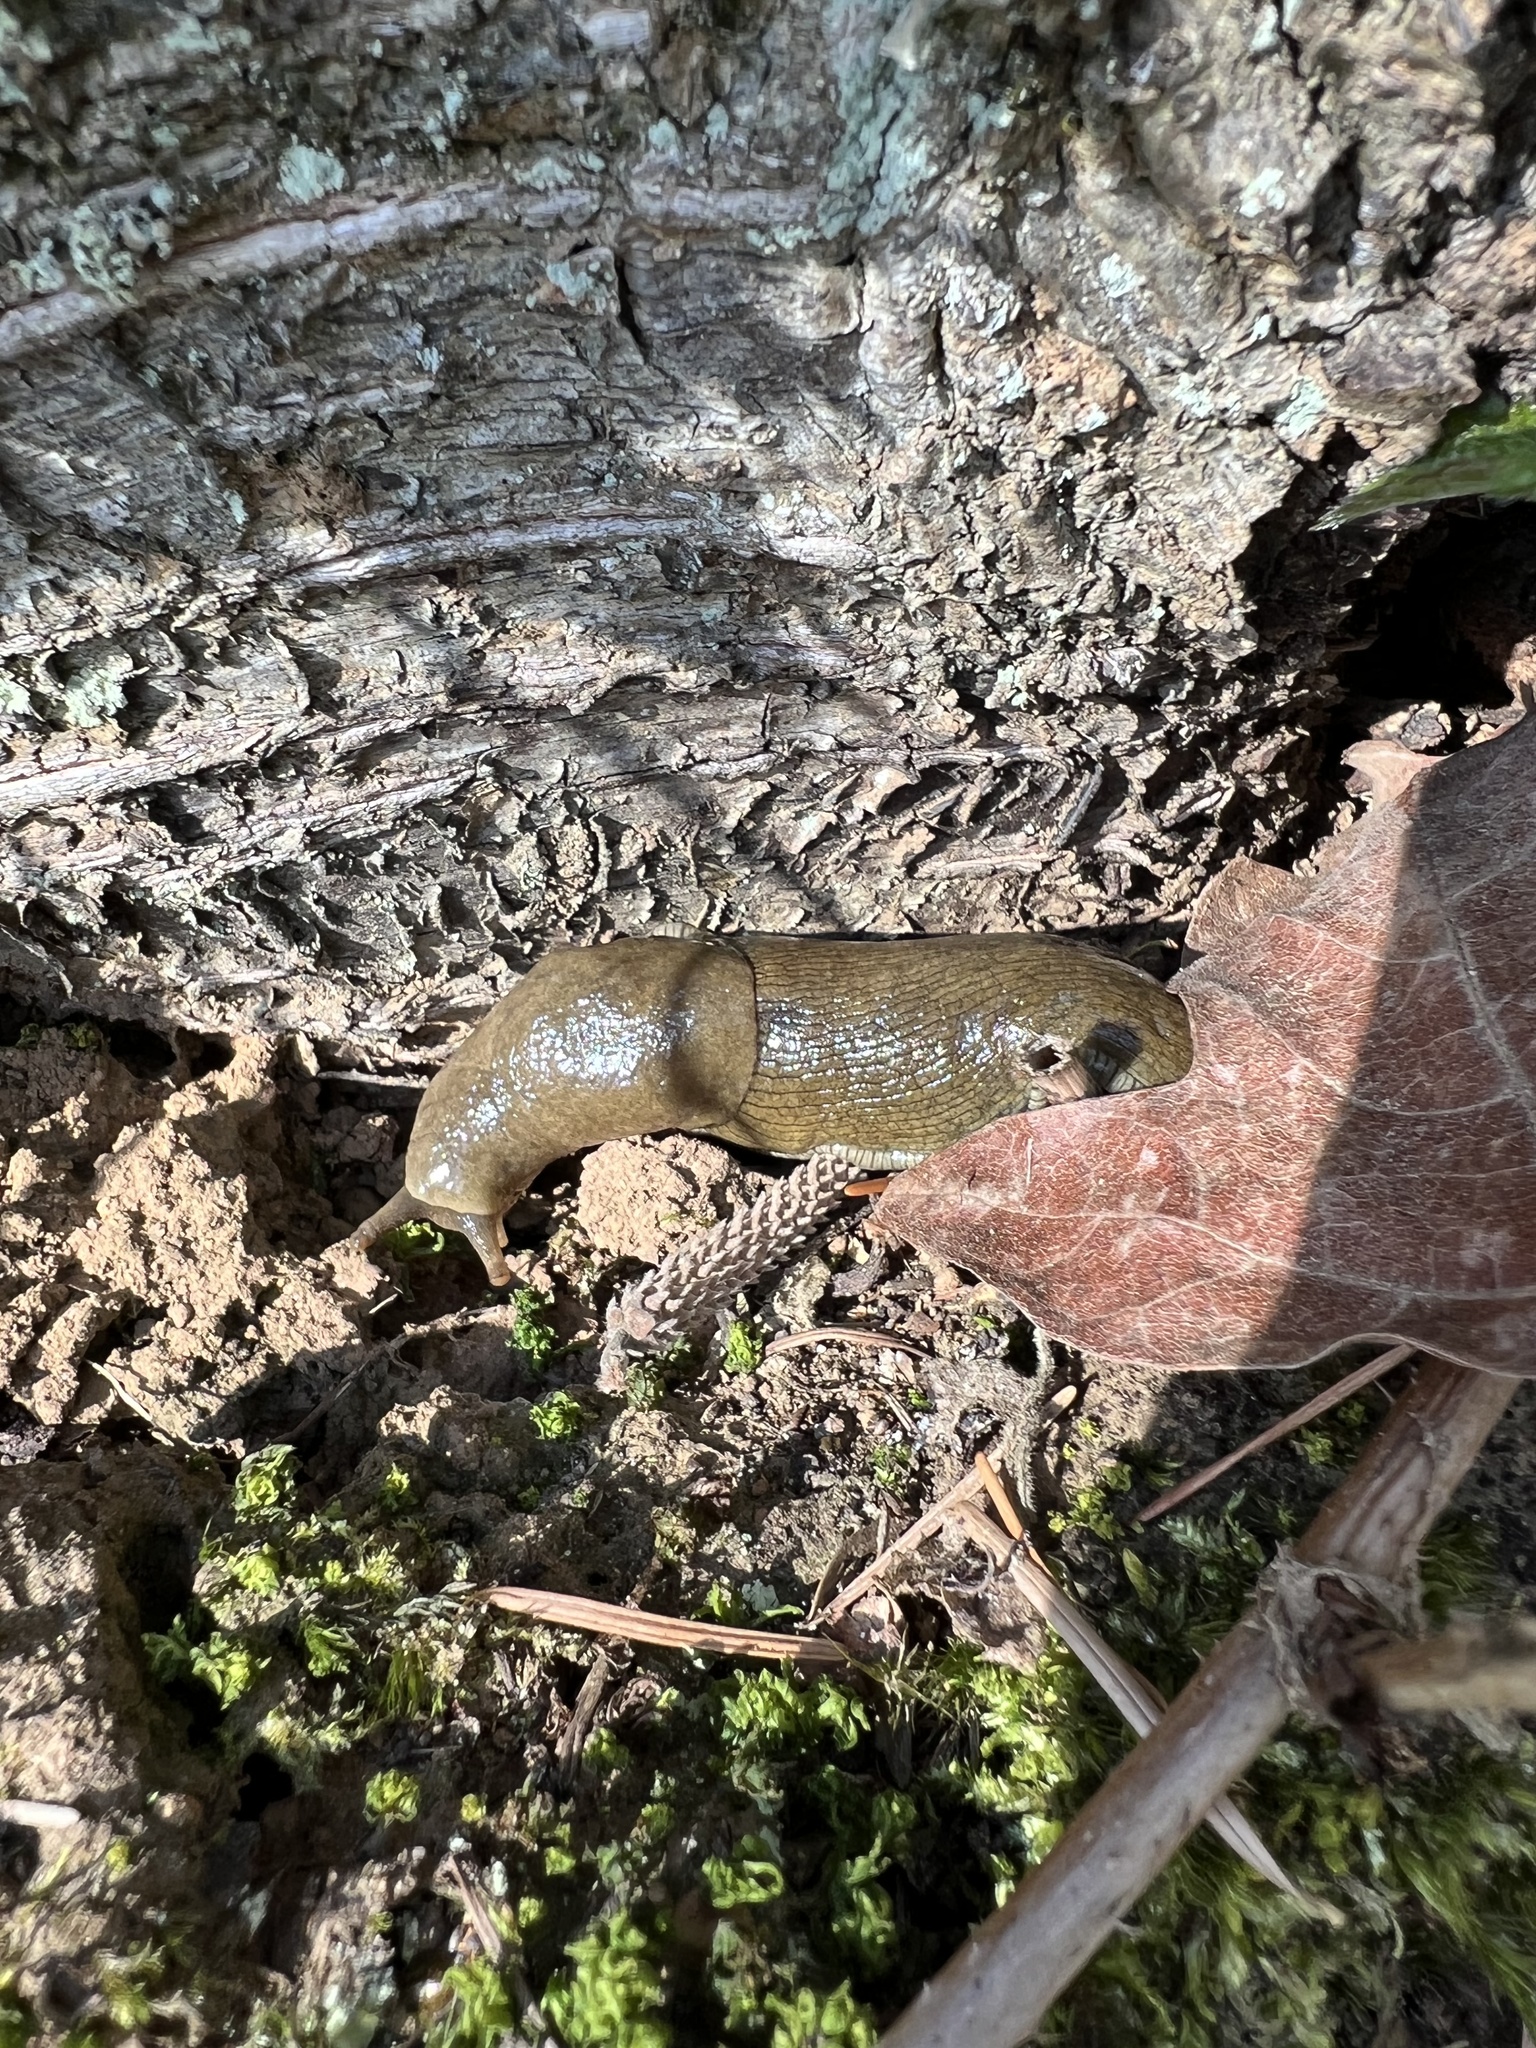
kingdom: Animalia
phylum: Mollusca
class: Gastropoda
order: Stylommatophora
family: Ariolimacidae
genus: Ariolimax
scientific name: Ariolimax columbianus
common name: Pacific banana slug
